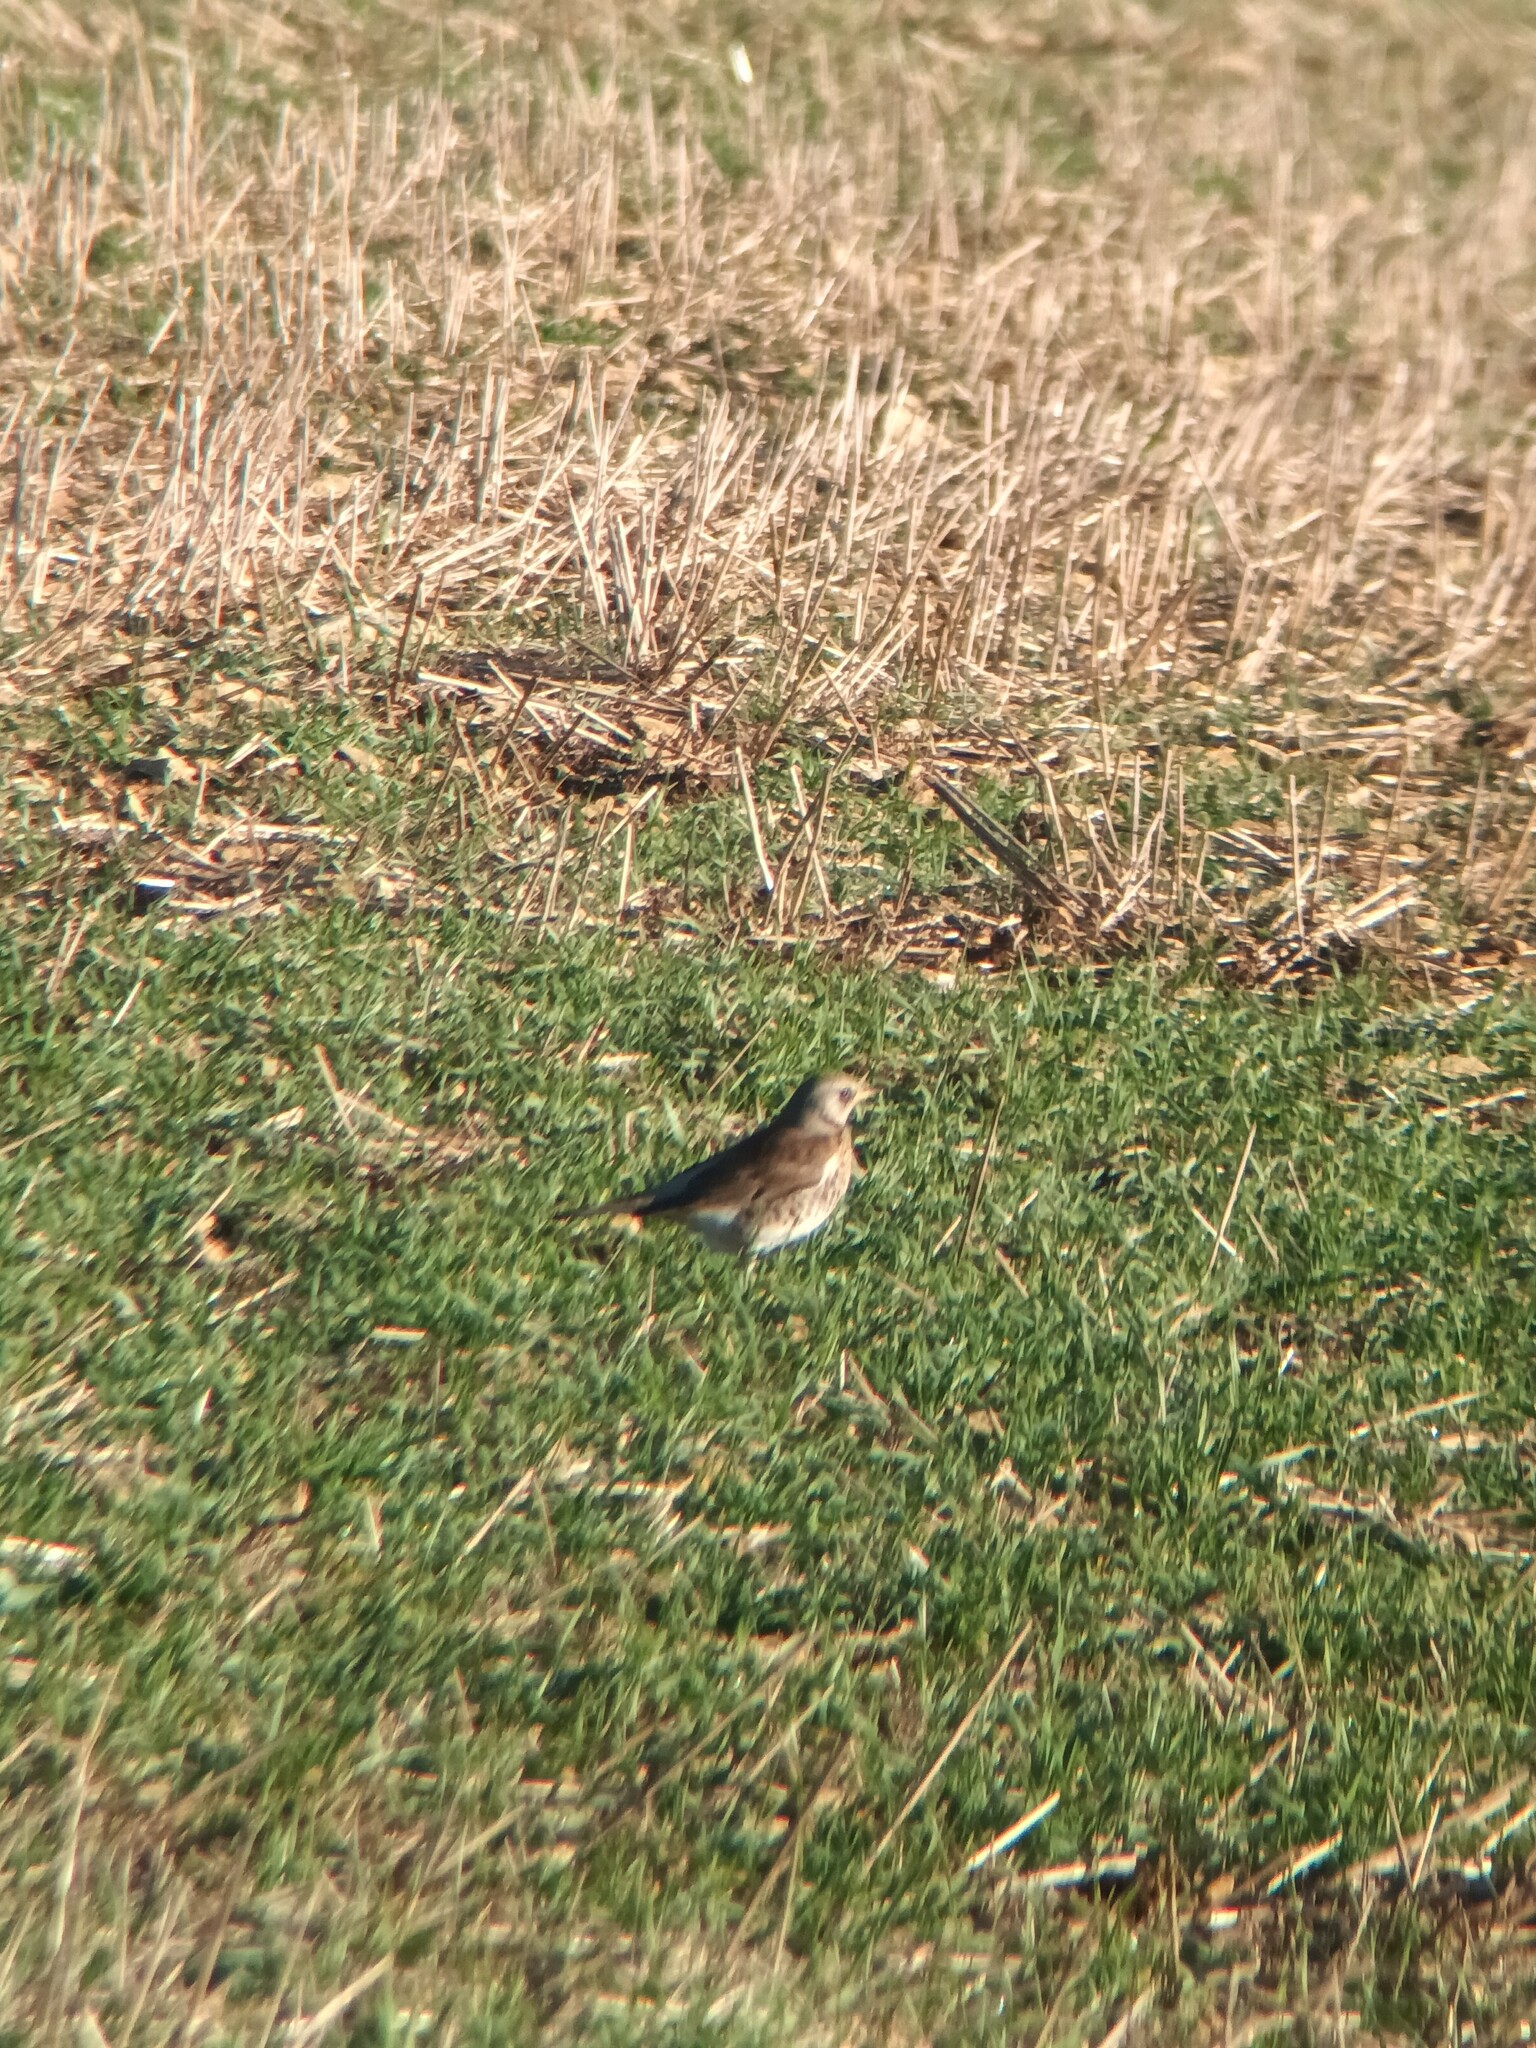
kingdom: Animalia
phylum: Chordata
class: Aves
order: Passeriformes
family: Turdidae
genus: Turdus
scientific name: Turdus pilaris
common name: Fieldfare
